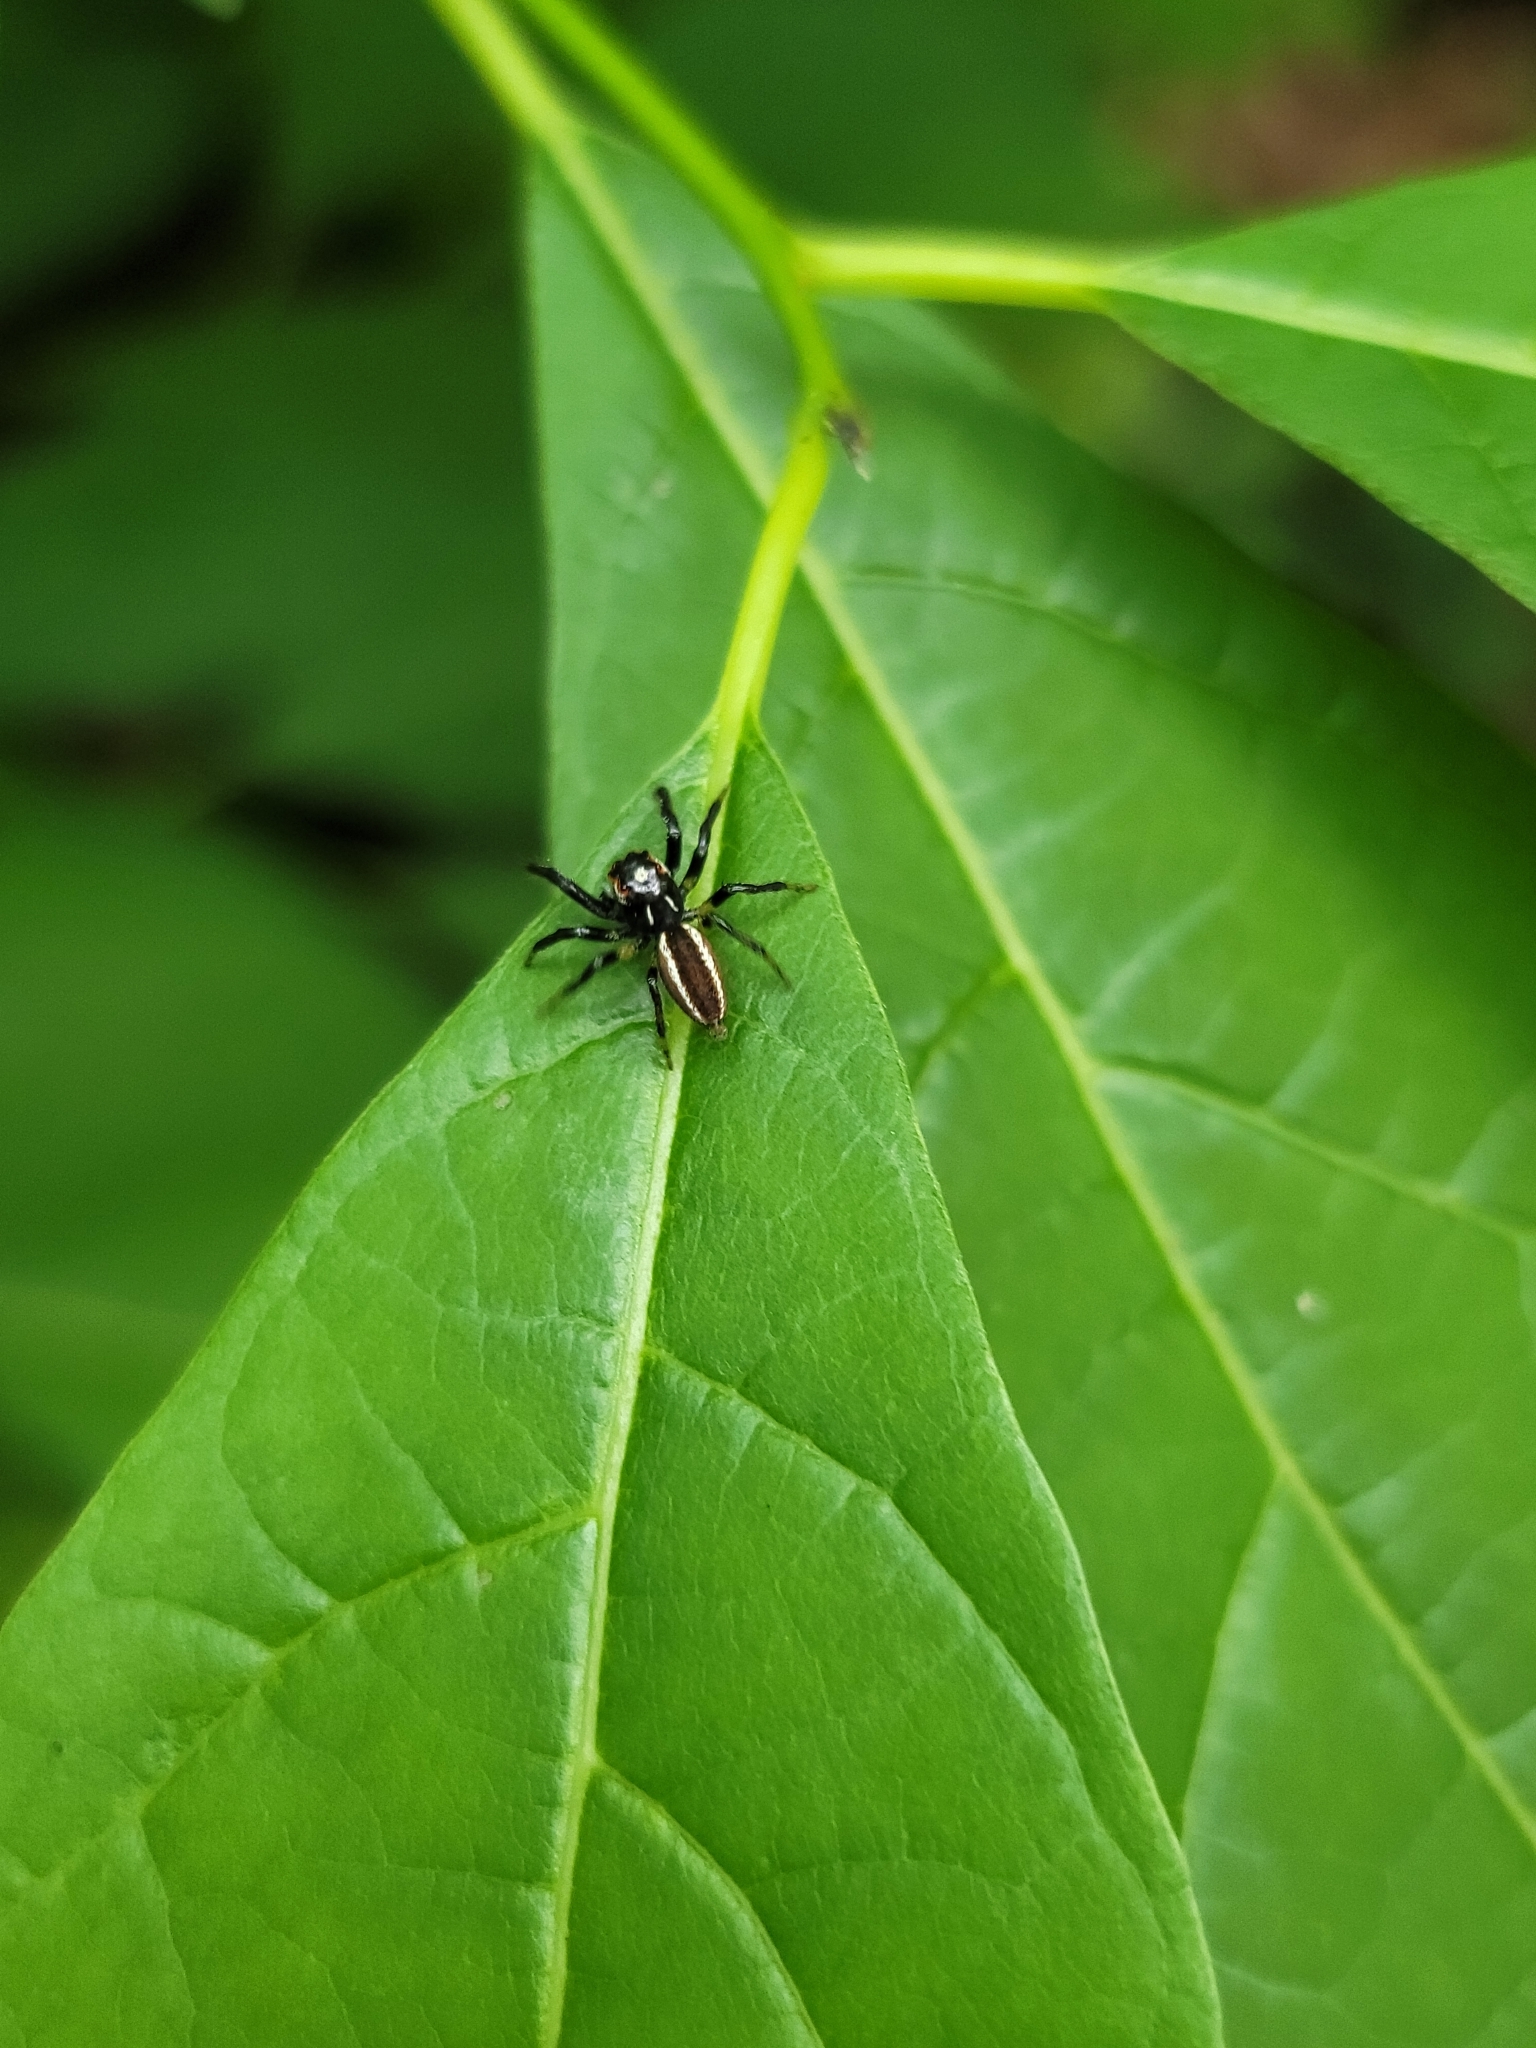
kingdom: Animalia
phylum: Arthropoda
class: Arachnida
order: Araneae
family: Salticidae
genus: Colonus
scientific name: Colonus sylvanus
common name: Jumping spiders
